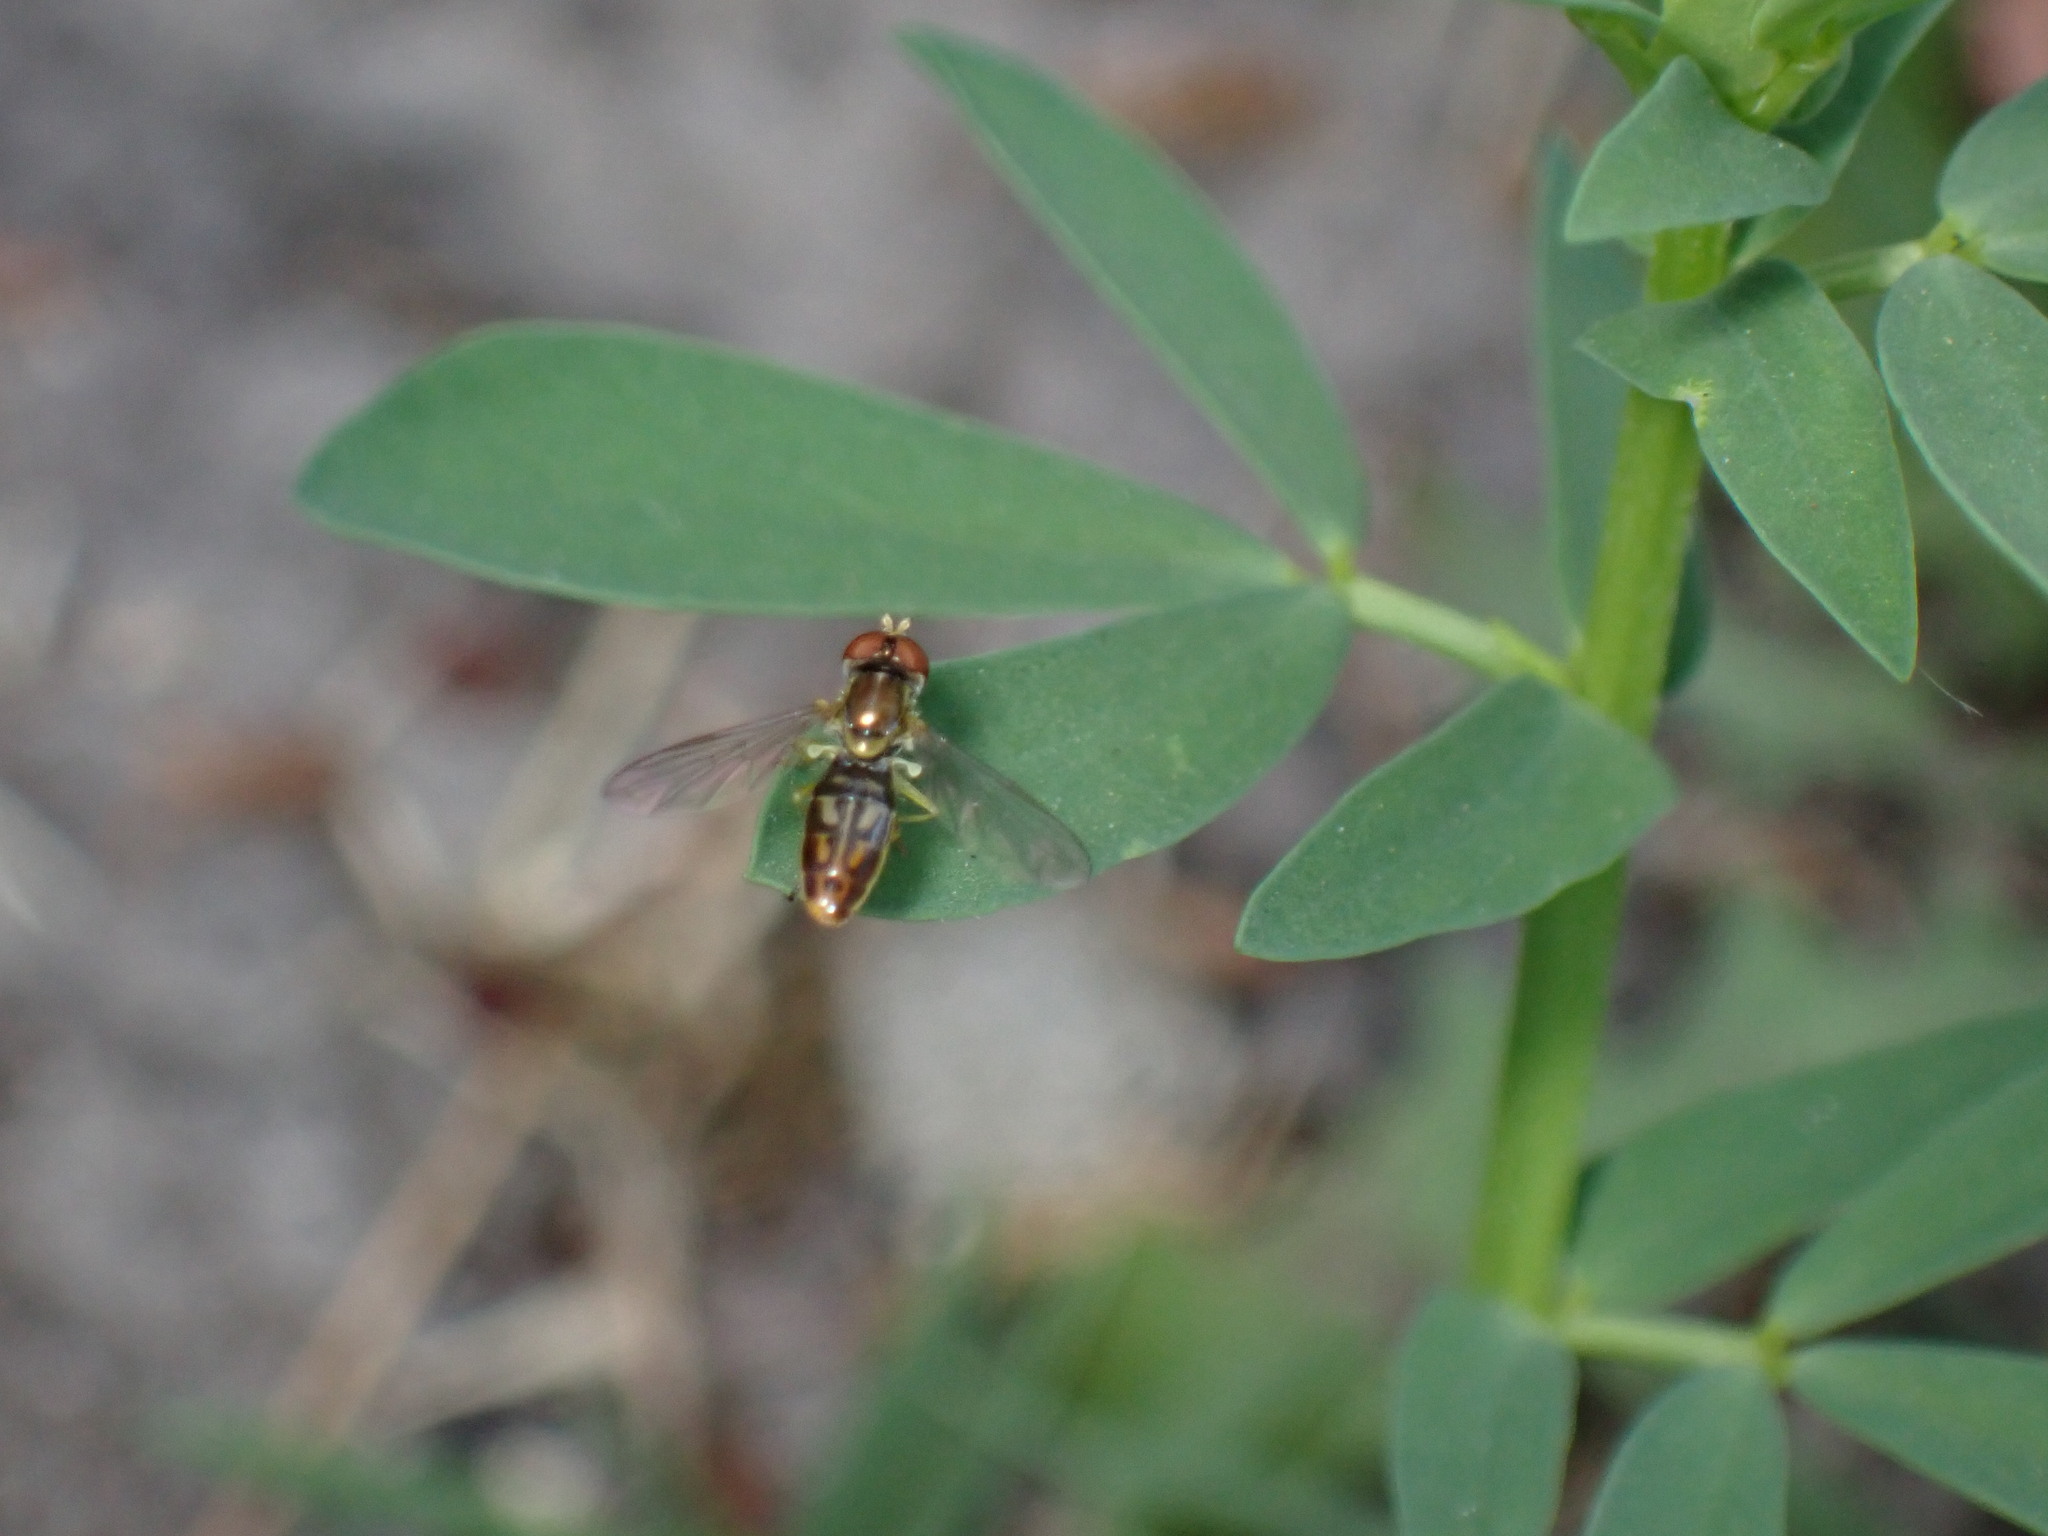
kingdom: Animalia
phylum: Arthropoda
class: Insecta
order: Diptera
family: Syrphidae
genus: Toxomerus
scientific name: Toxomerus marginatus
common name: Syrphid fly
